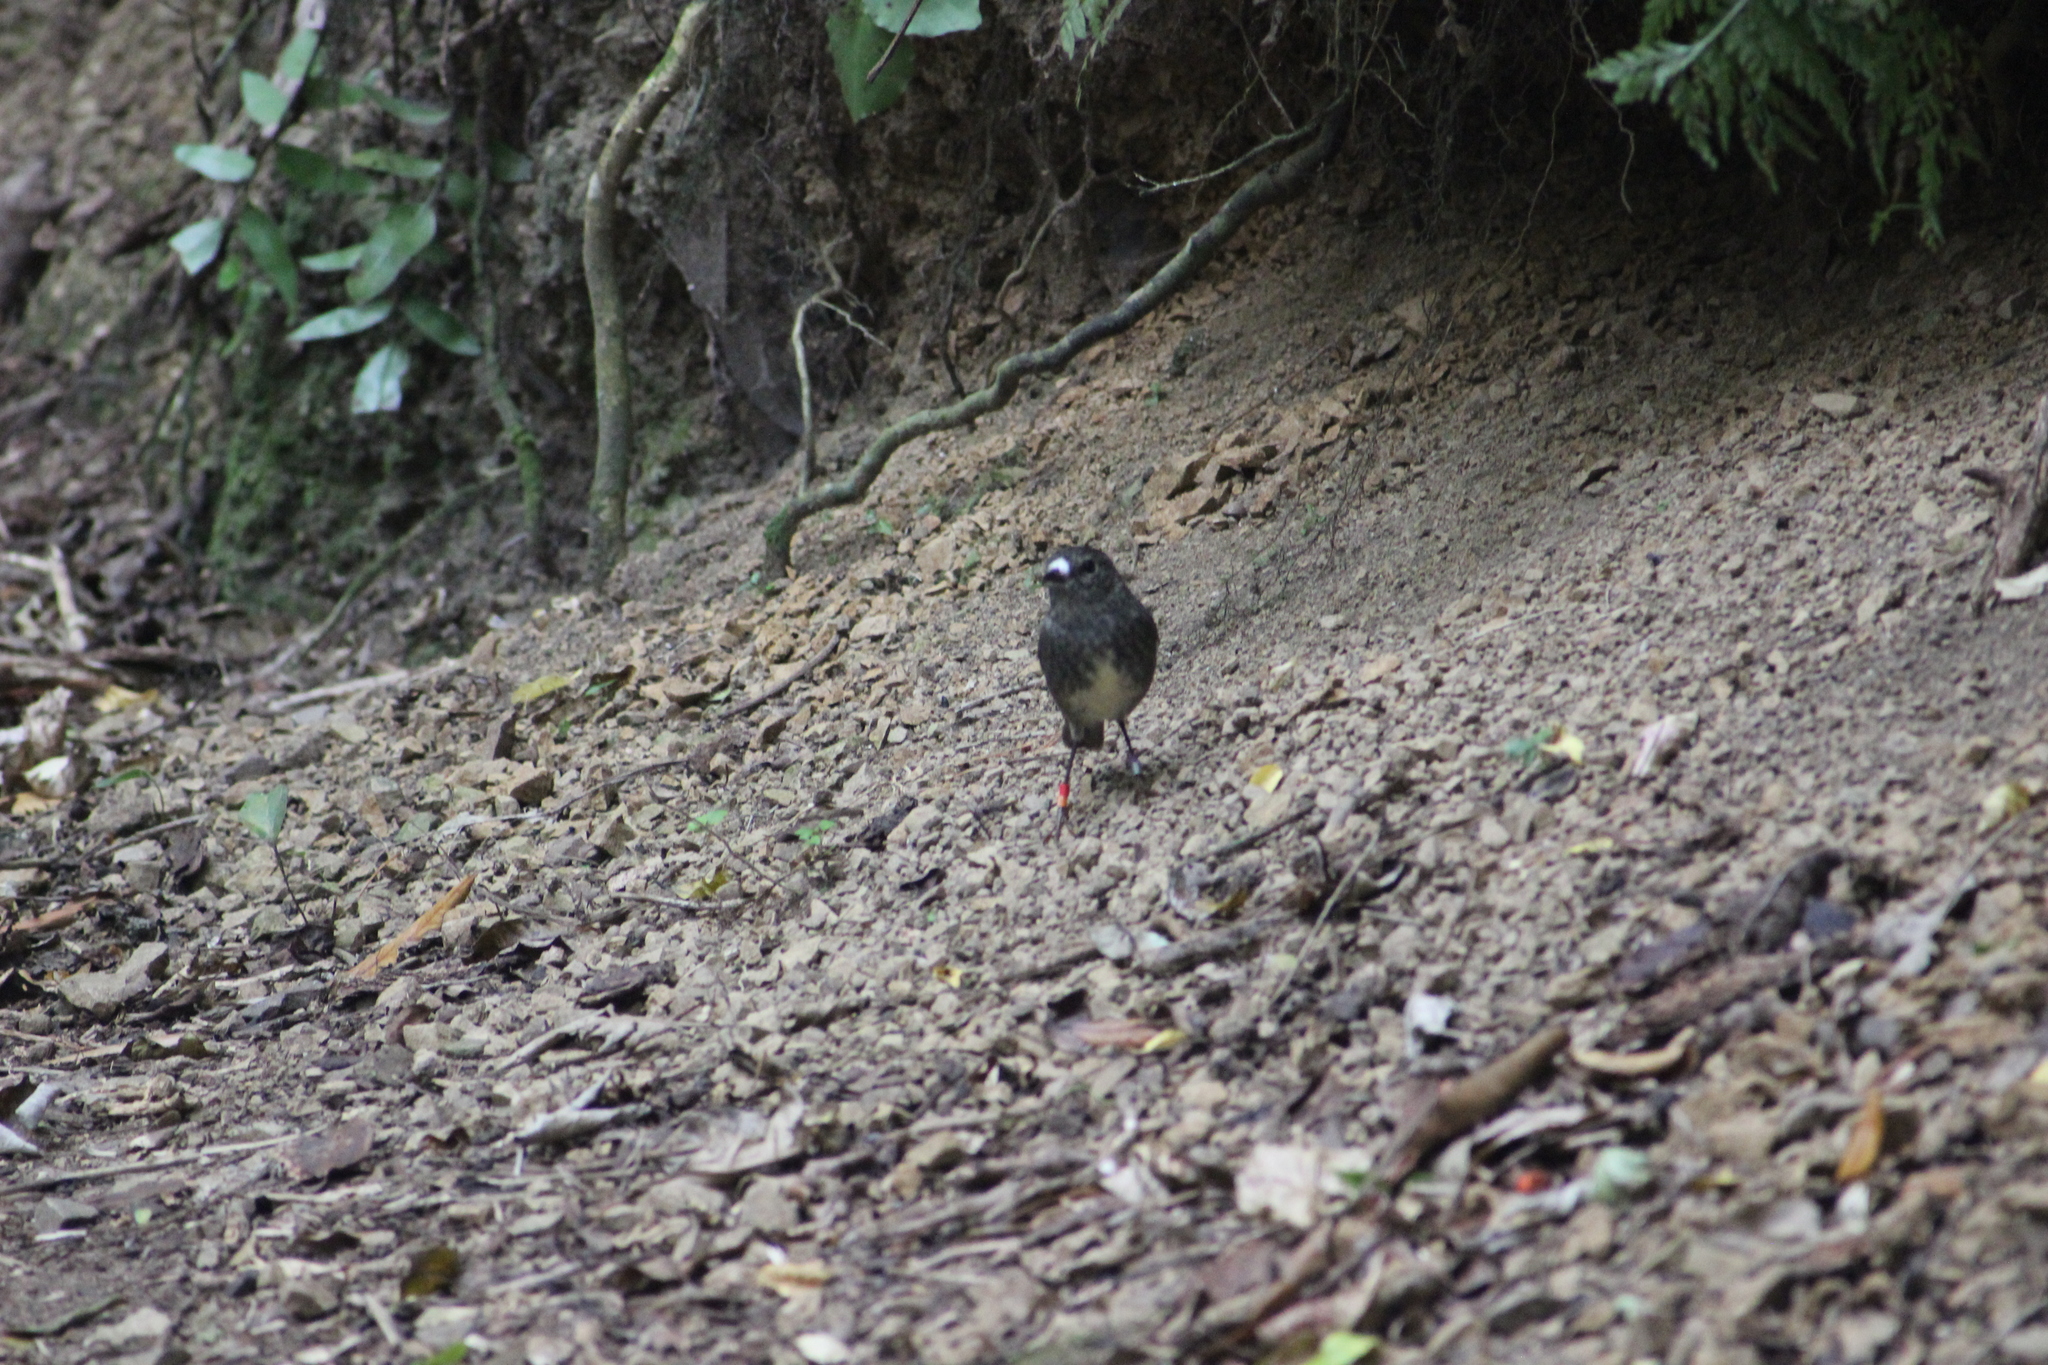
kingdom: Animalia
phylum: Chordata
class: Aves
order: Passeriformes
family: Petroicidae
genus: Petroica
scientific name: Petroica australis
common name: New zealand robin
